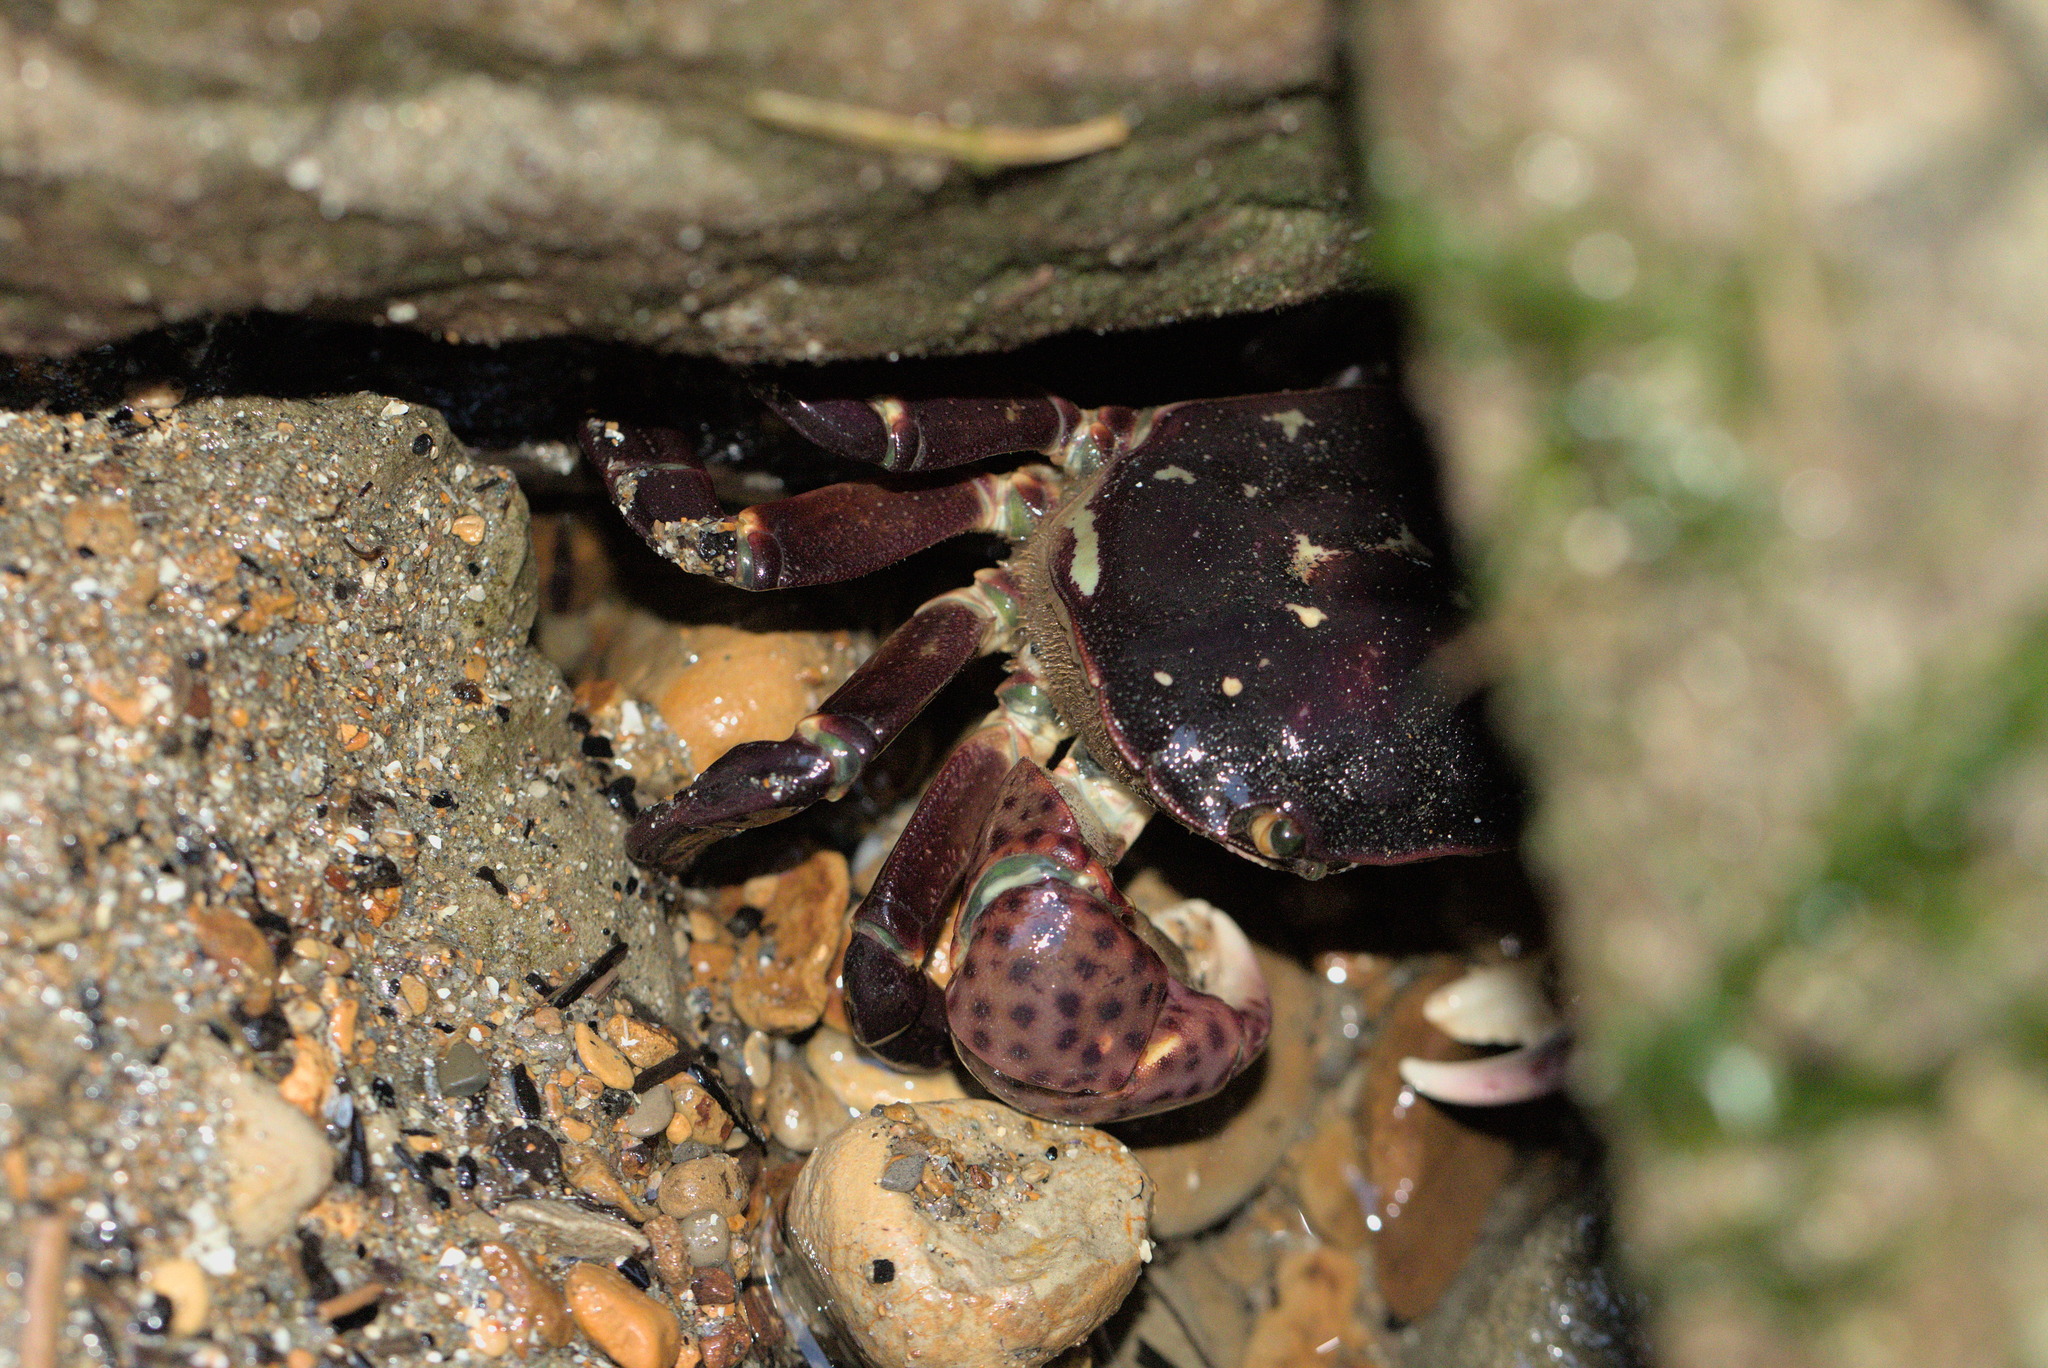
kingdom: Animalia
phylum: Arthropoda
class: Malacostraca
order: Decapoda
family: Varunidae
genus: Hemigrapsus
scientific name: Hemigrapsus nudus
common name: Purple shore crab
